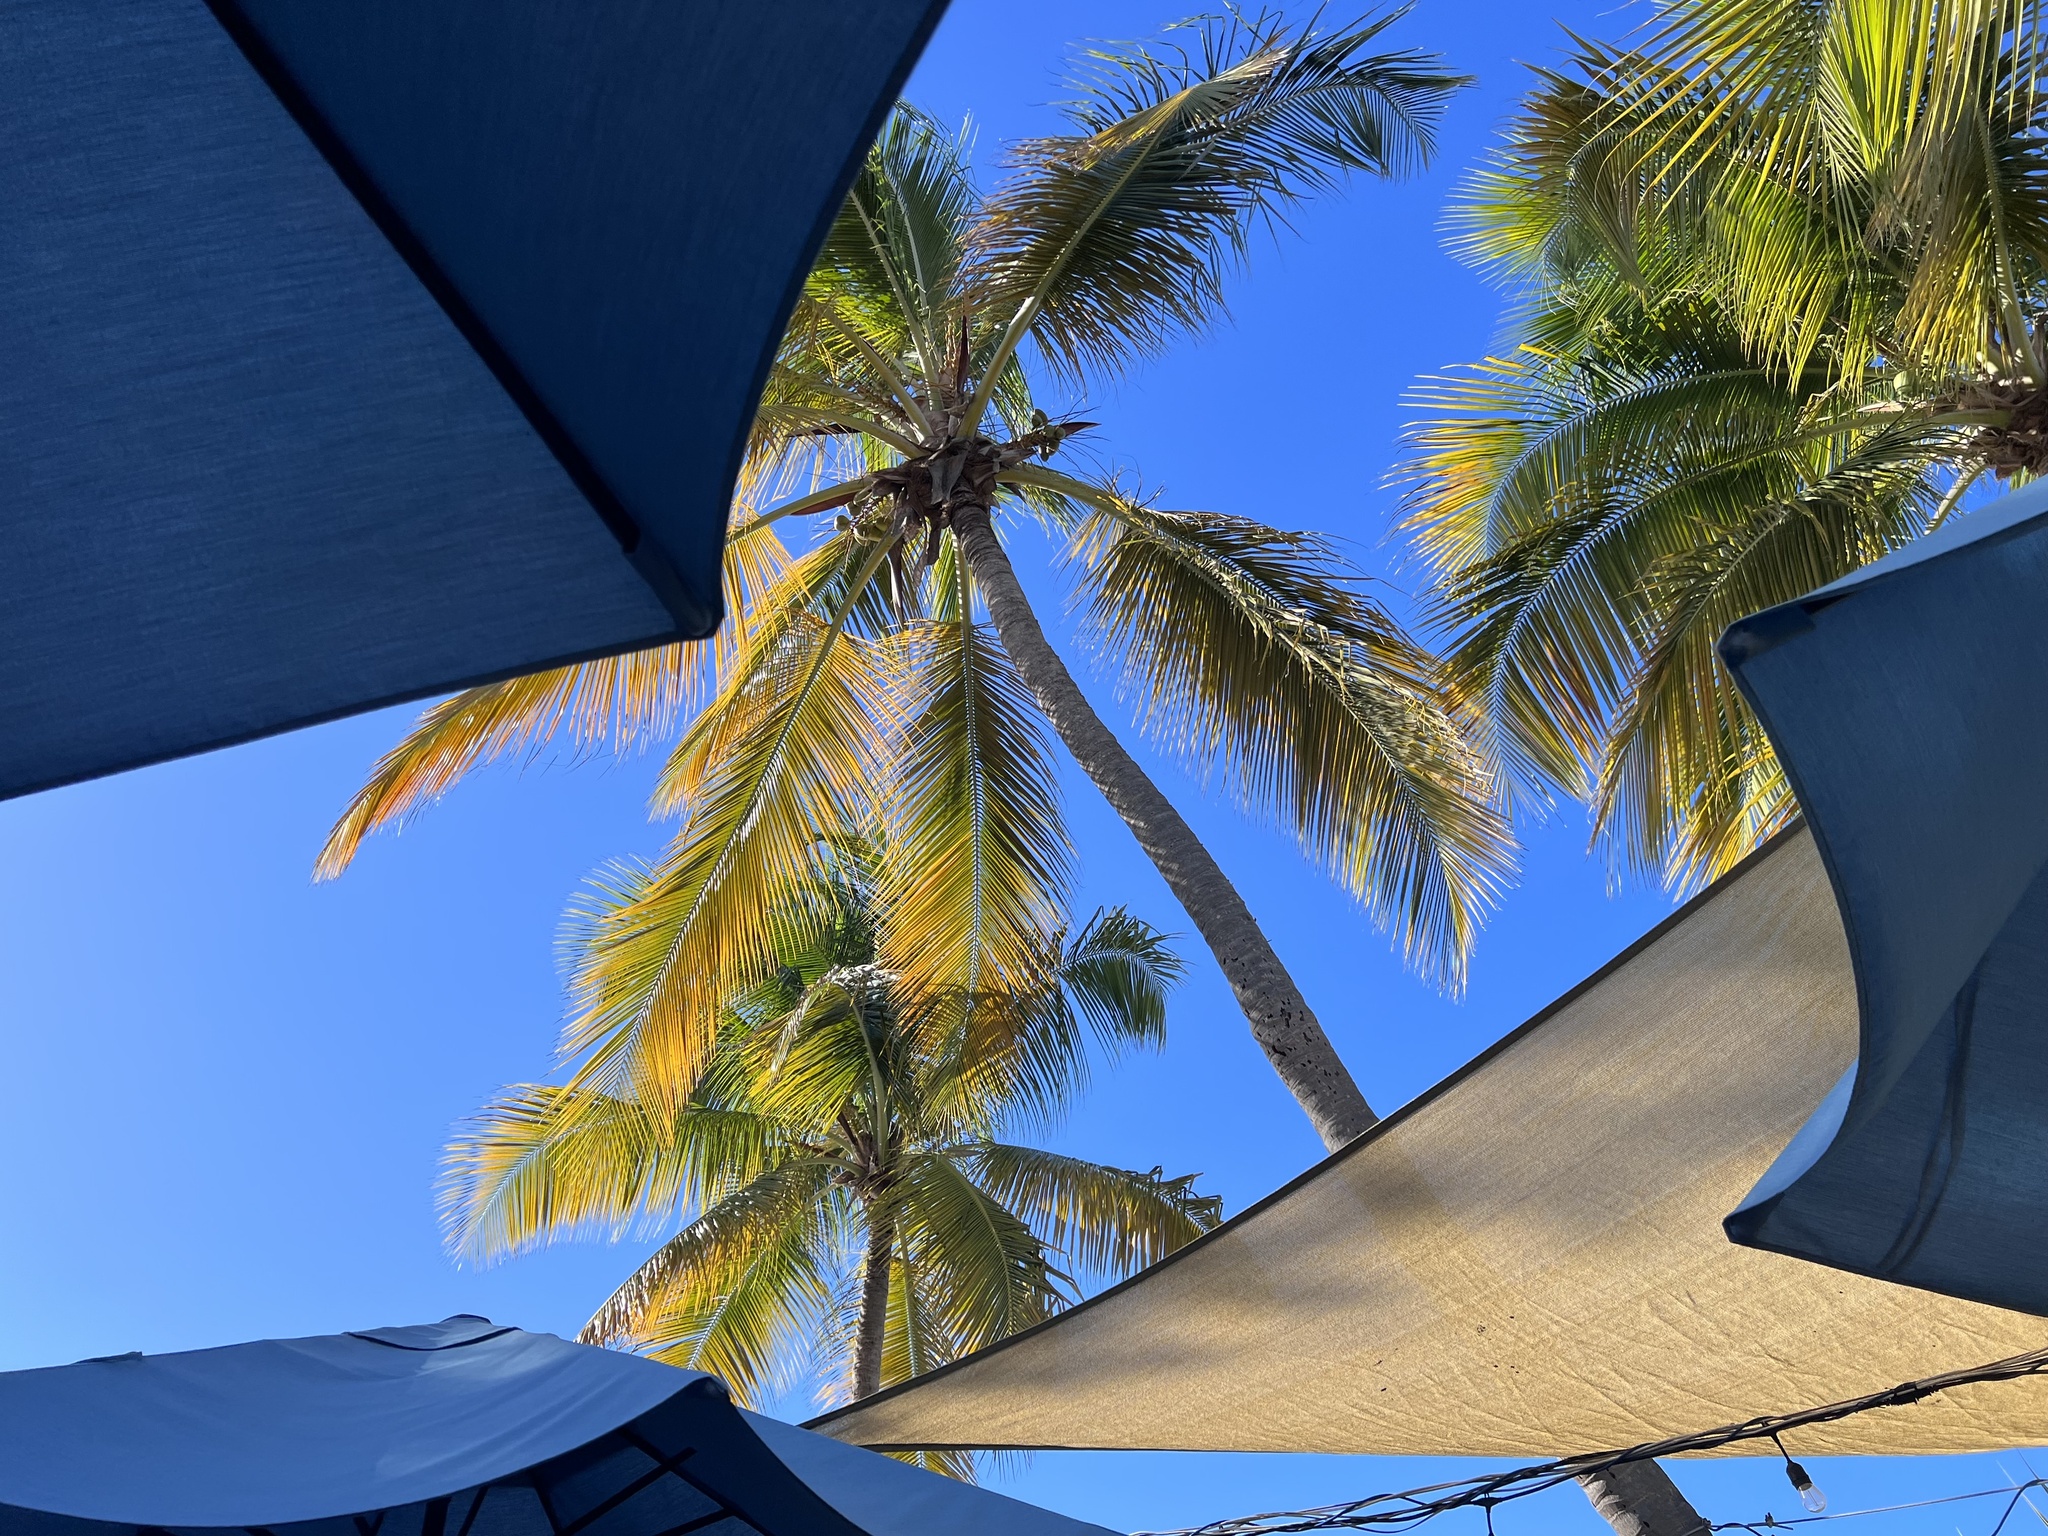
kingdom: Plantae
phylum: Tracheophyta
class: Liliopsida
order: Arecales
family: Arecaceae
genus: Cocos
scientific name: Cocos nucifera
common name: Coconut palm
